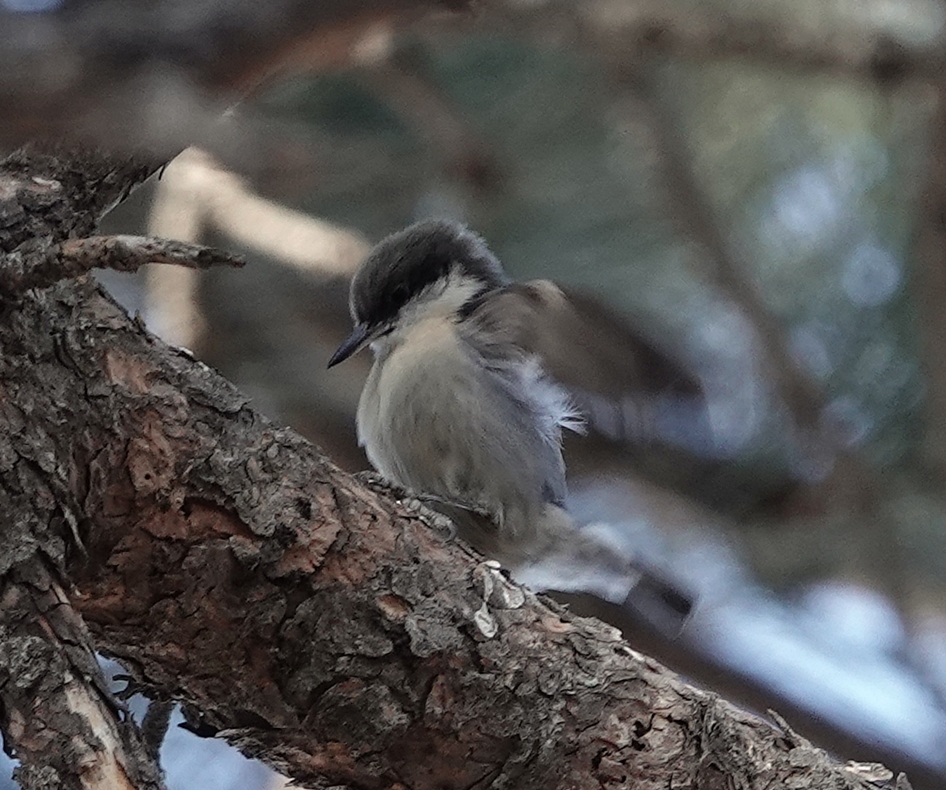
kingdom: Animalia
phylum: Chordata
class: Aves
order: Passeriformes
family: Sittidae
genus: Sitta
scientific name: Sitta pygmaea
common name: Pygmy nuthatch
